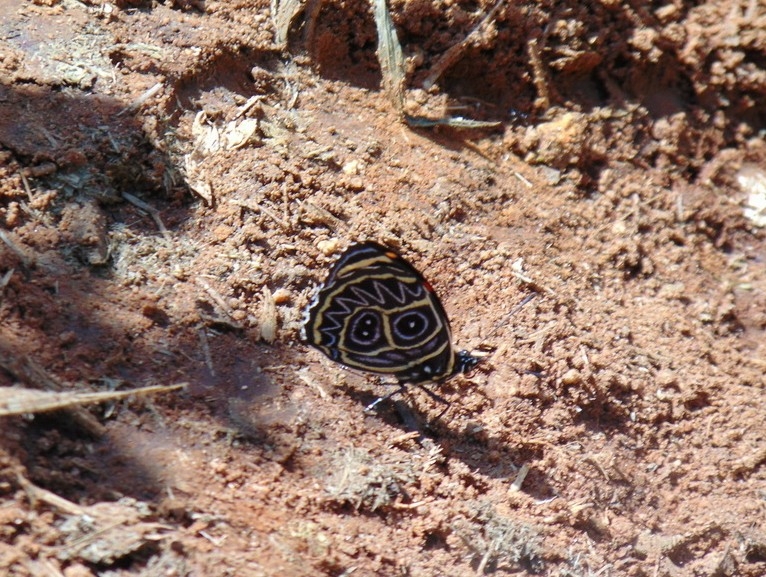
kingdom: Animalia
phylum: Arthropoda
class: Insecta
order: Lepidoptera
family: Nymphalidae
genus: Catagramma
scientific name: Catagramma Callicore sorana
